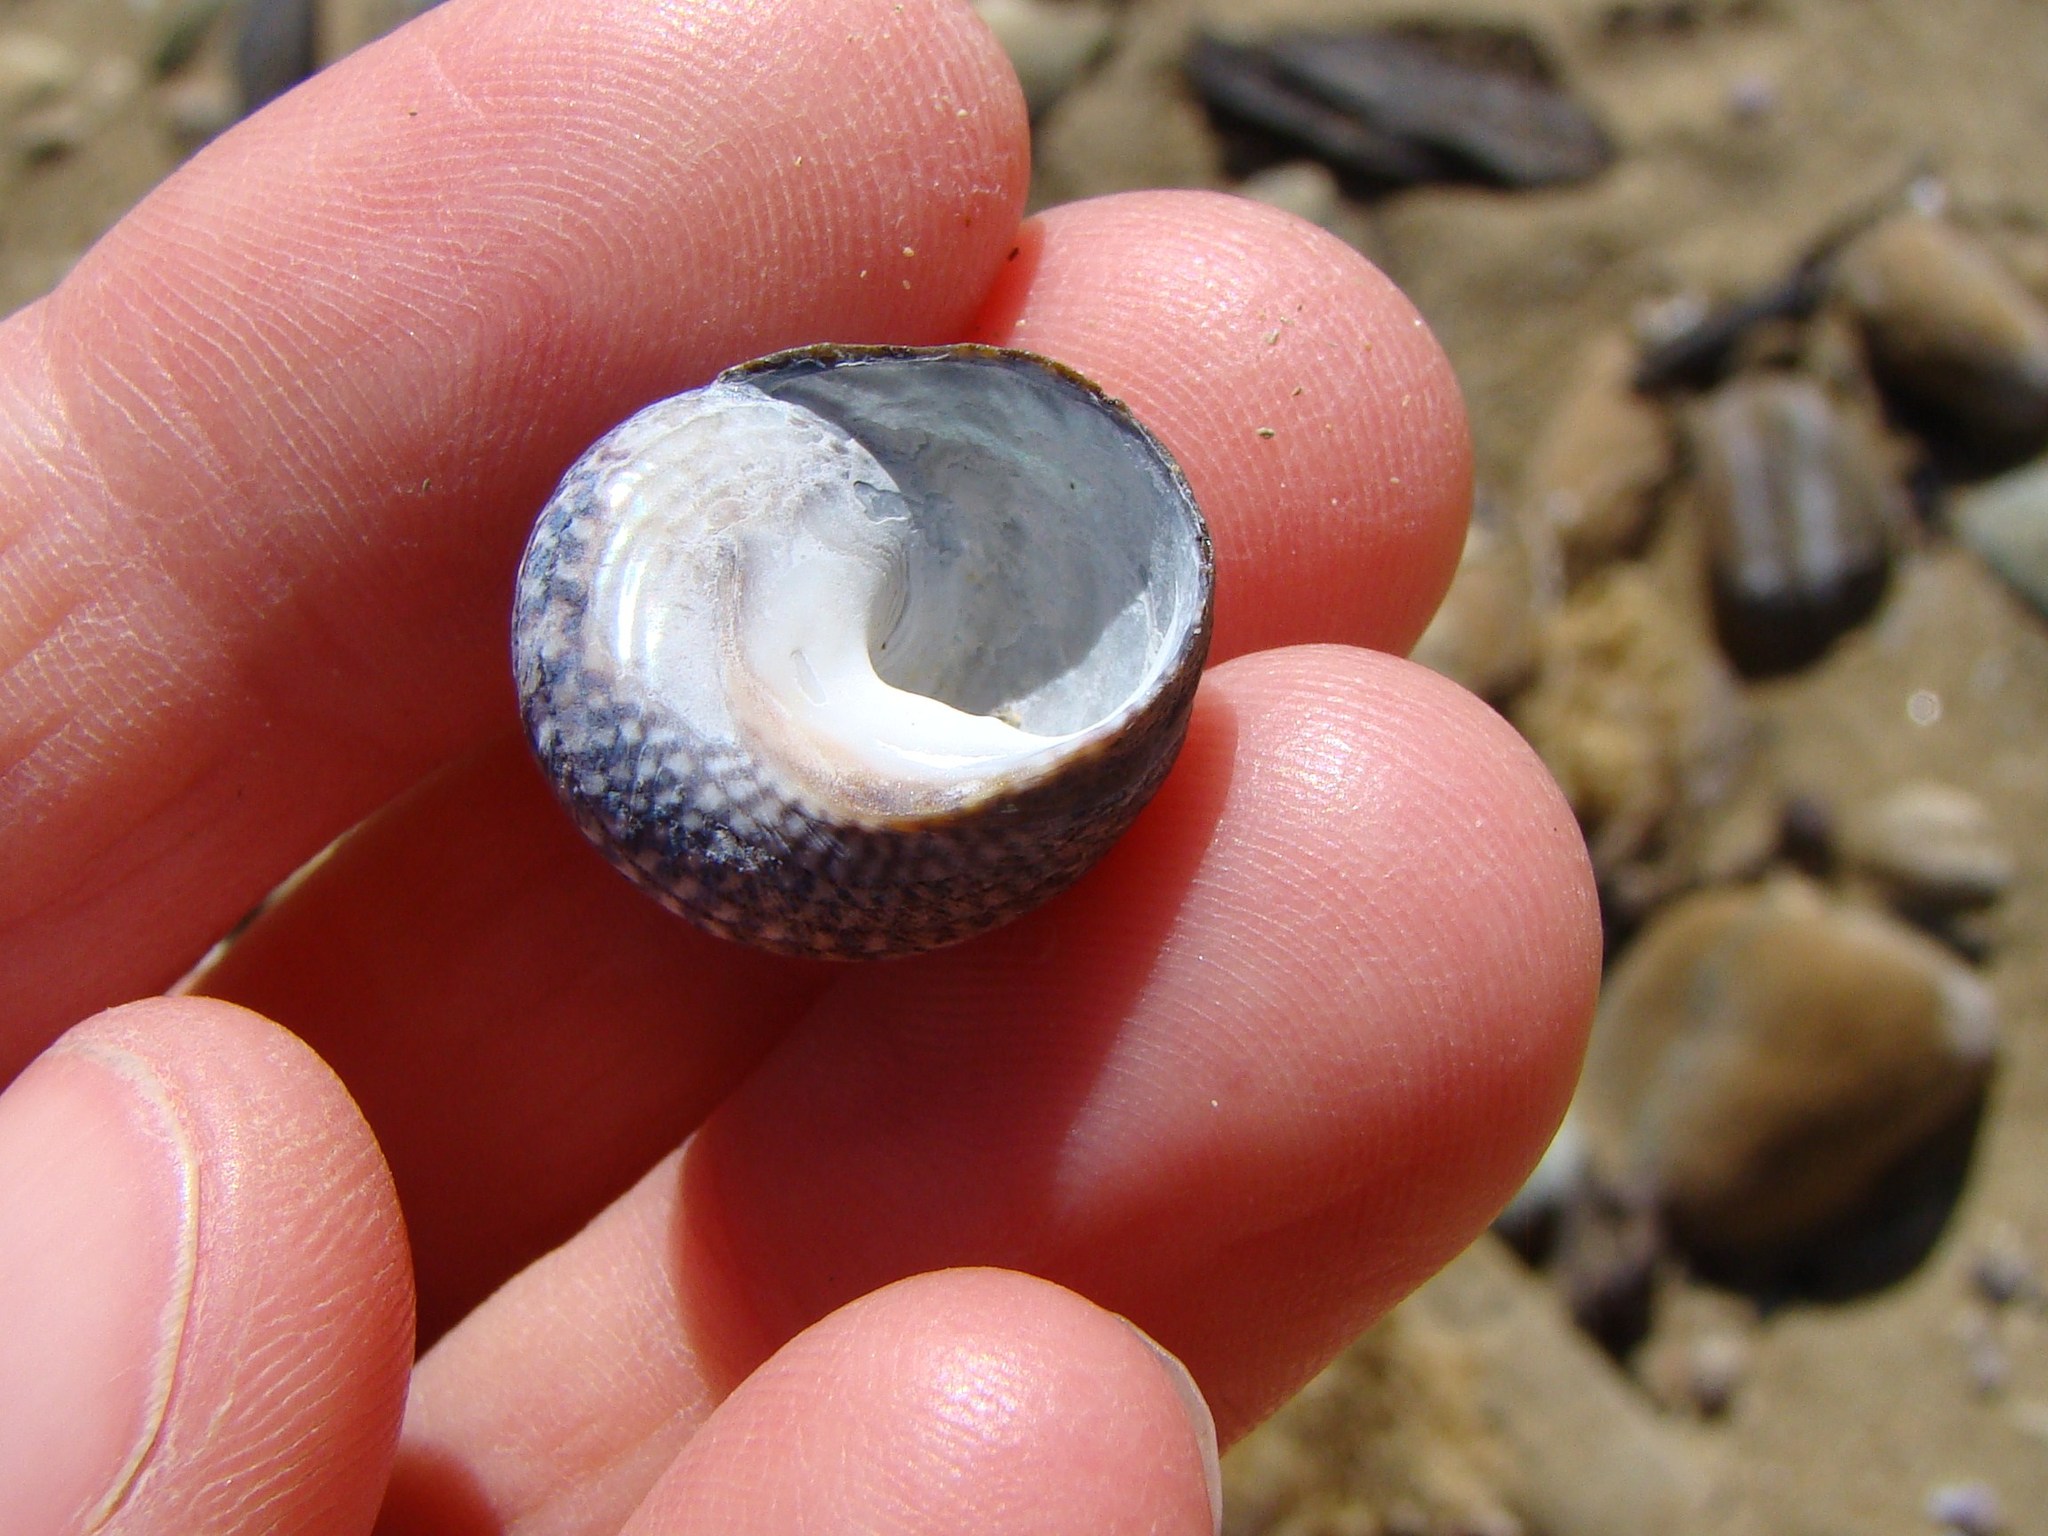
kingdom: Animalia
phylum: Mollusca
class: Gastropoda
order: Trochida
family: Trochidae
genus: Diloma
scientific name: Diloma aethiops
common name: Scorched monodont
